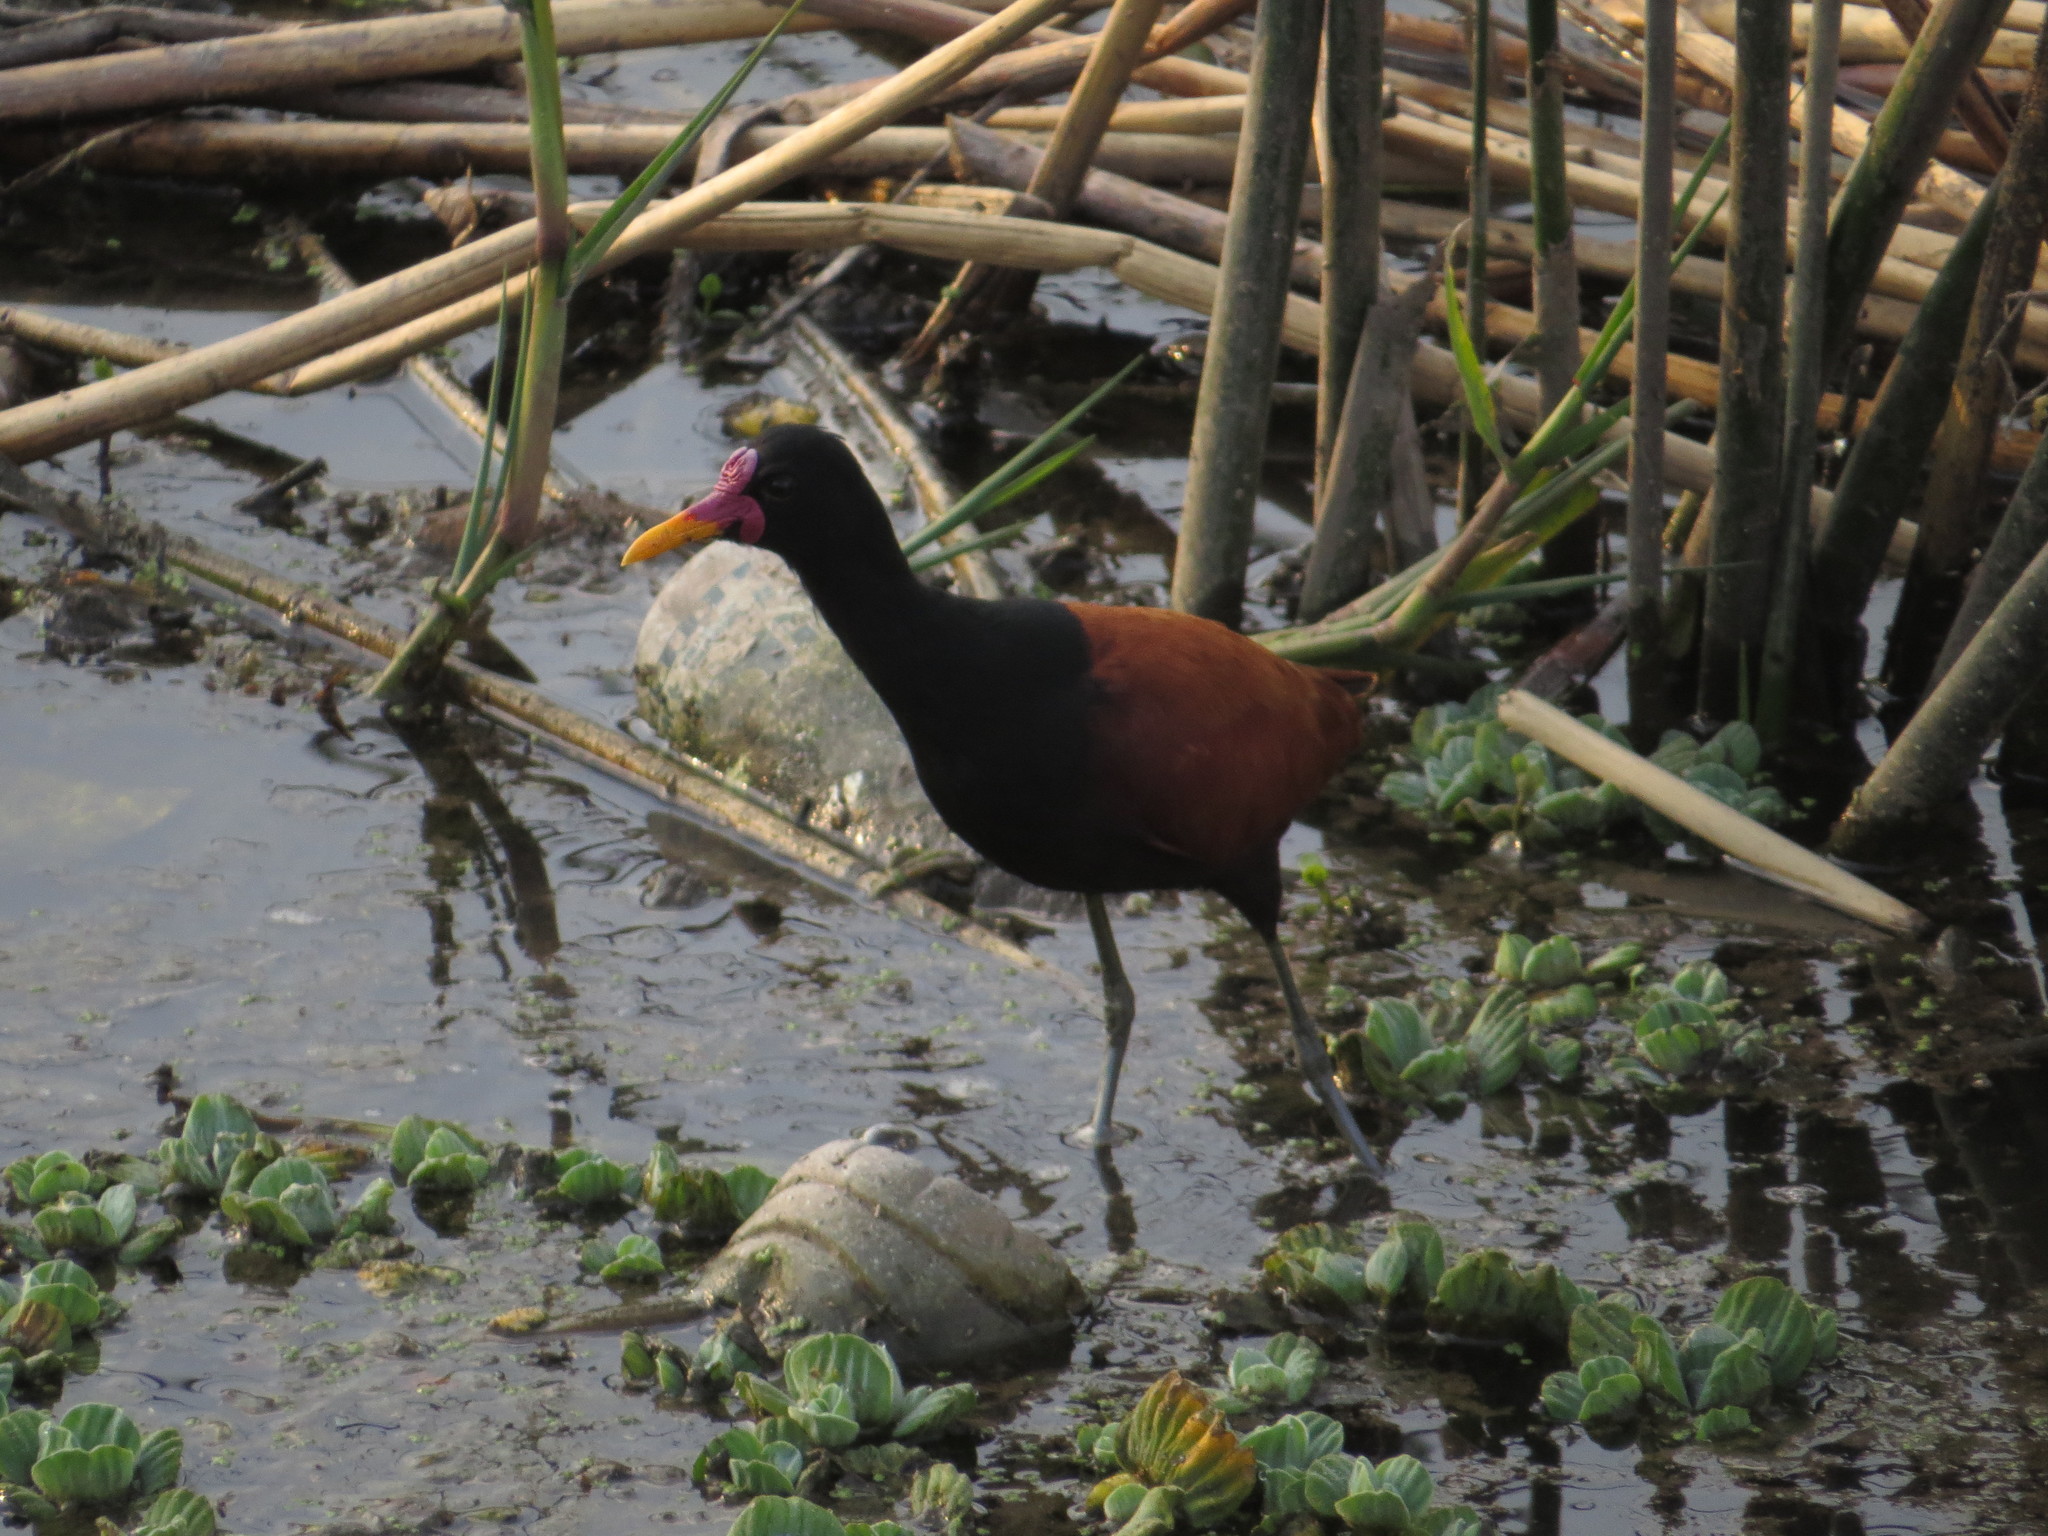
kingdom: Animalia
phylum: Chordata
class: Aves
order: Charadriiformes
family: Jacanidae
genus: Jacana
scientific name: Jacana jacana
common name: Wattled jacana
